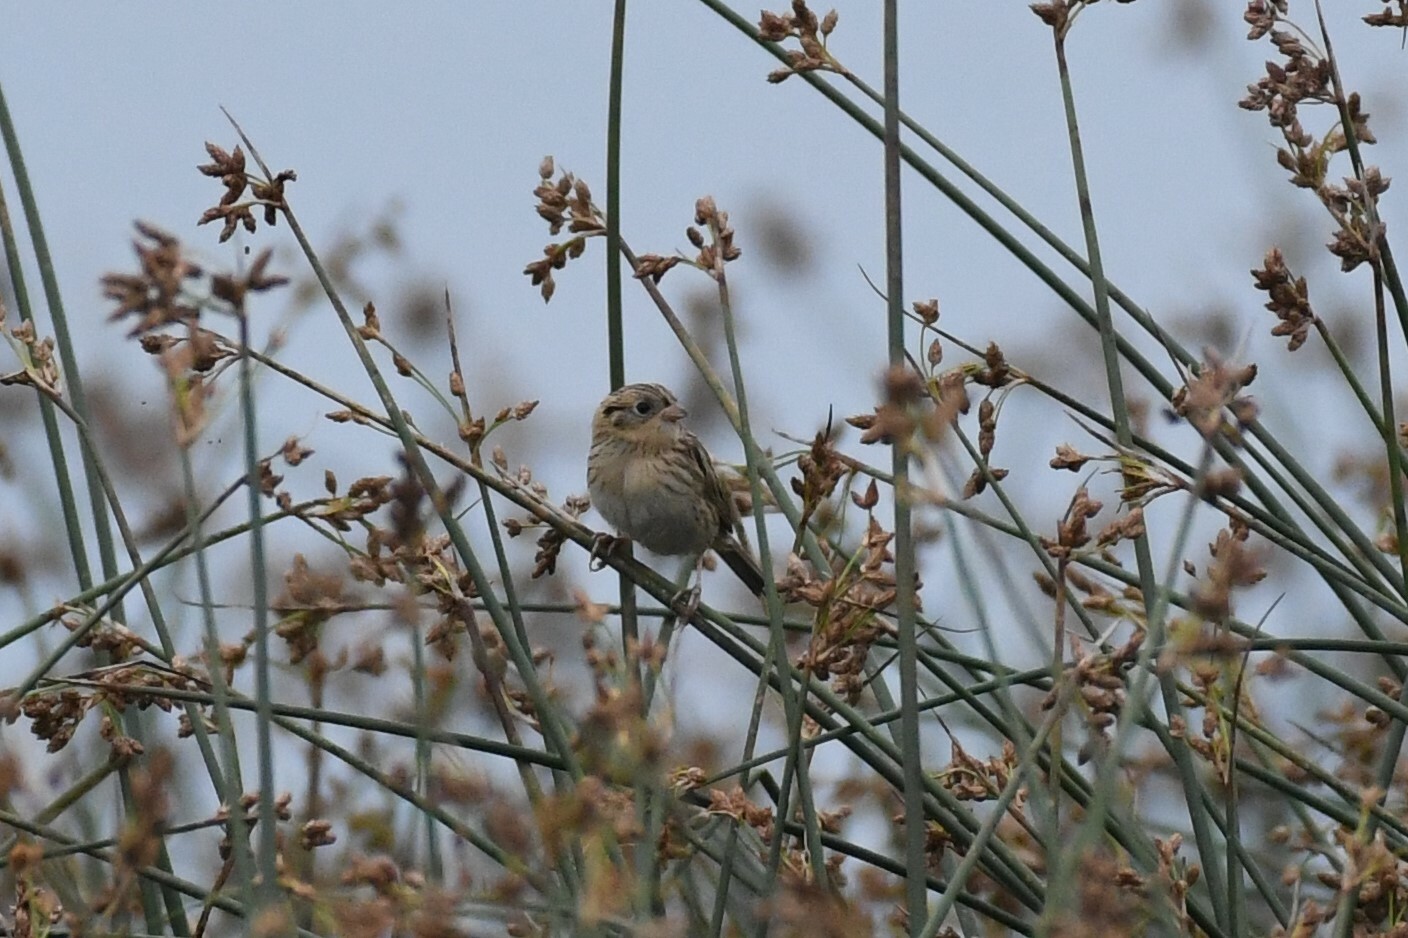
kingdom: Animalia
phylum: Chordata
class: Aves
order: Passeriformes
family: Passerellidae
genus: Ammospiza
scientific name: Ammospiza leconteii
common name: Le conte's sparrow
